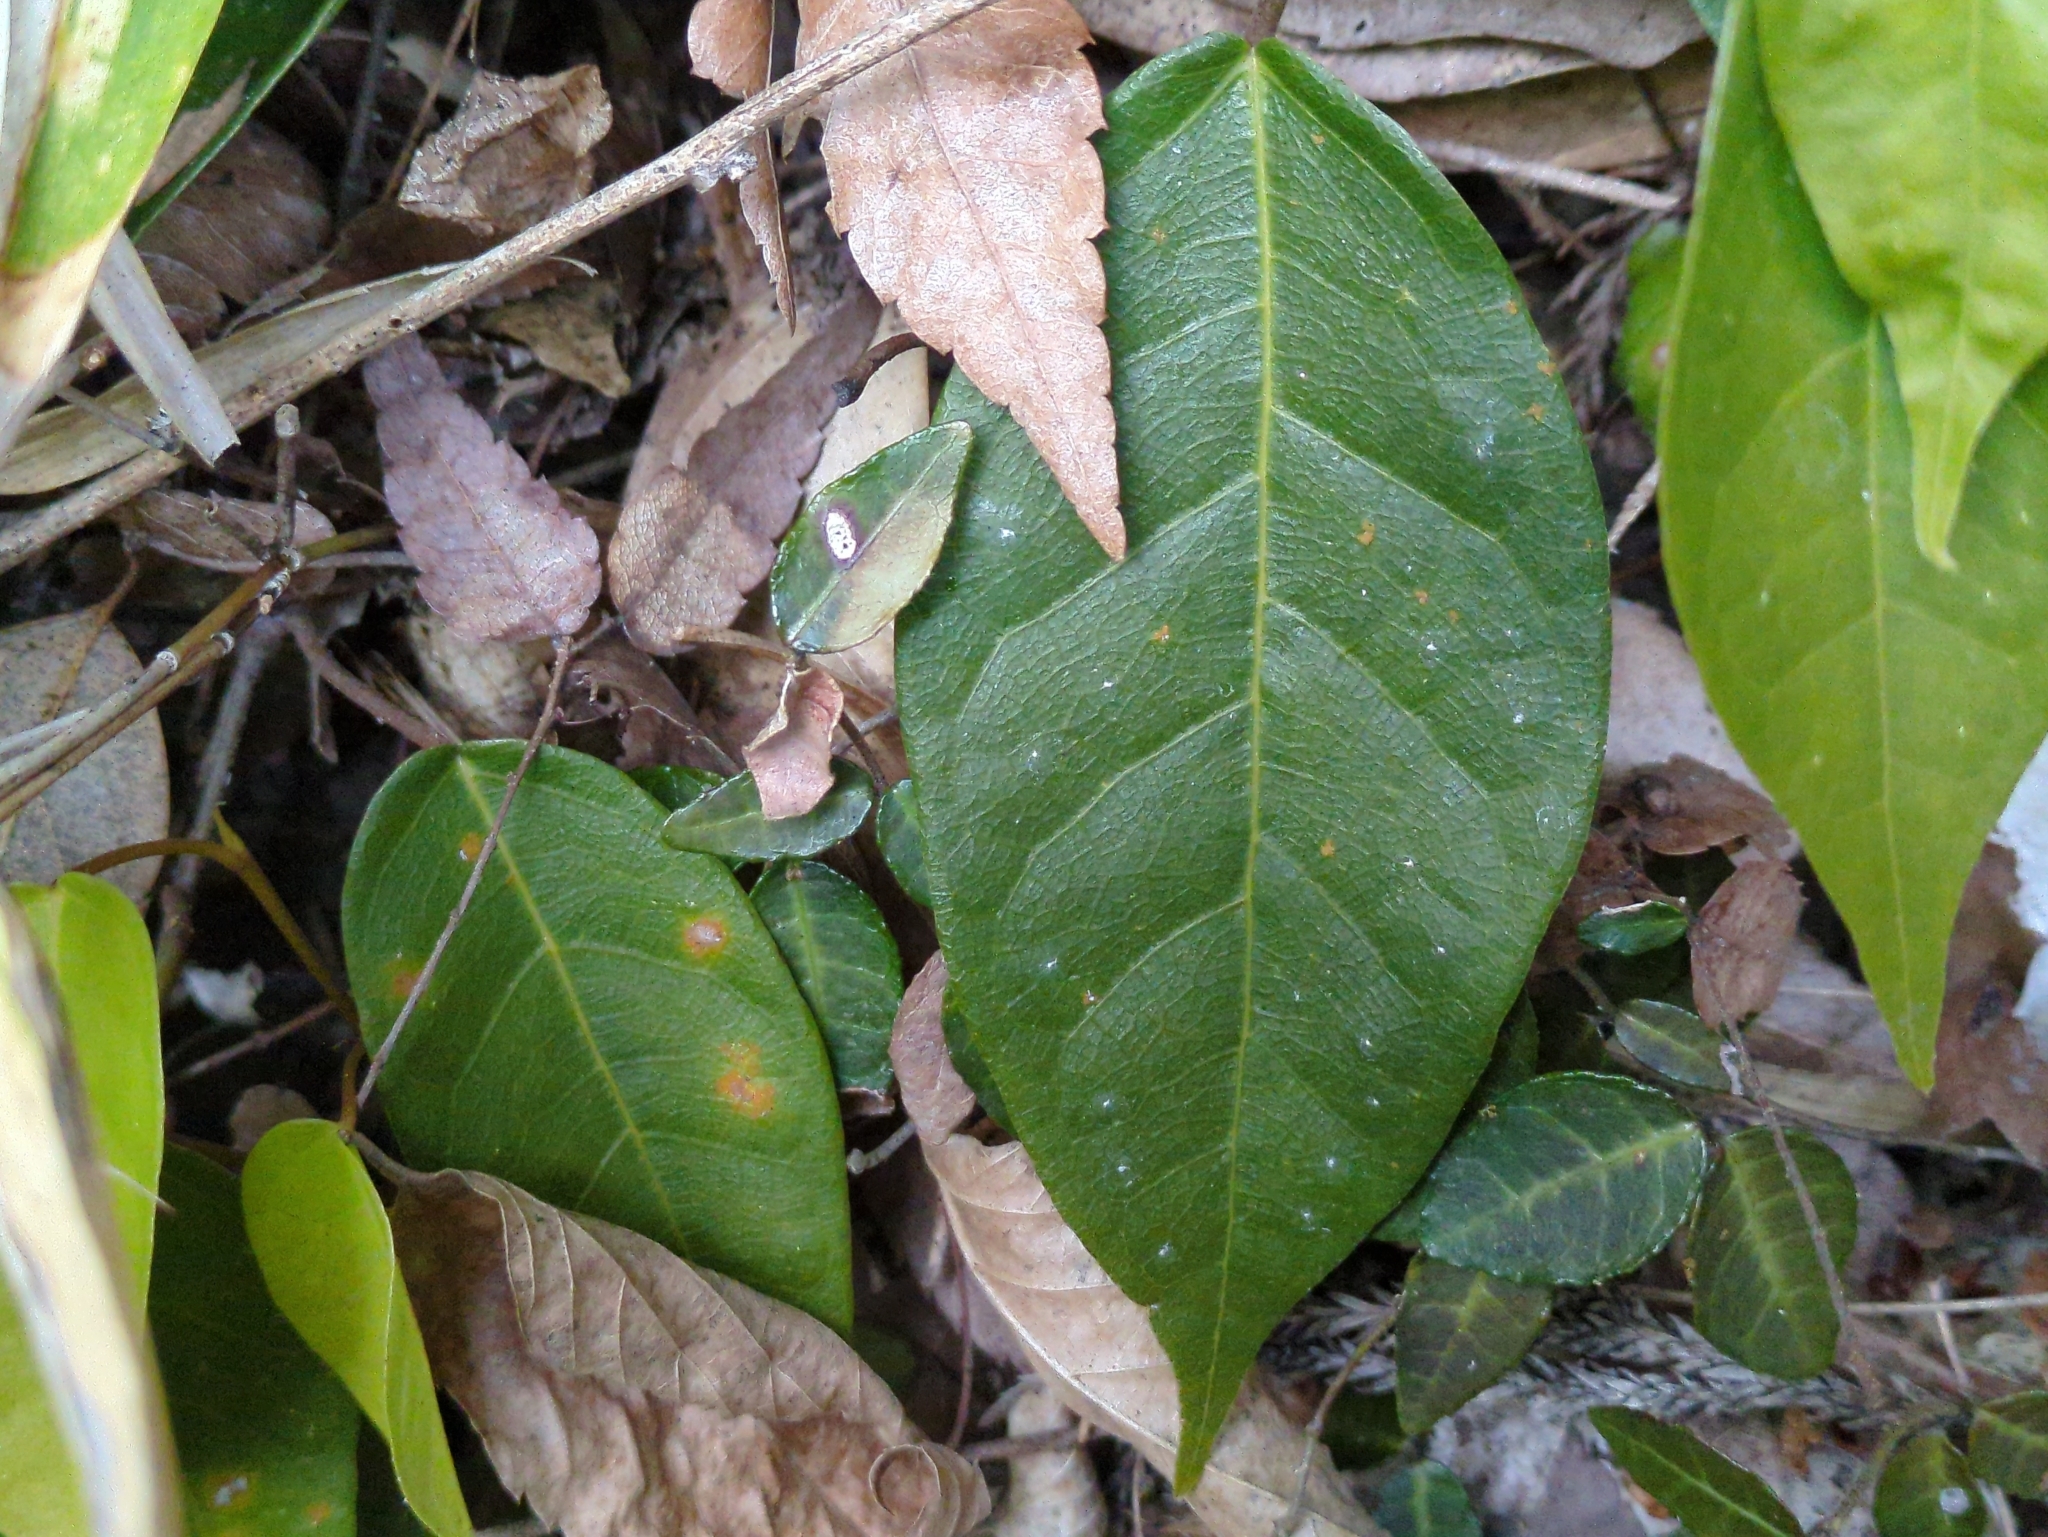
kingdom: Plantae
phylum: Tracheophyta
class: Magnoliopsida
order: Rosales
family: Moraceae
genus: Ficus
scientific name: Ficus sarmentosa
